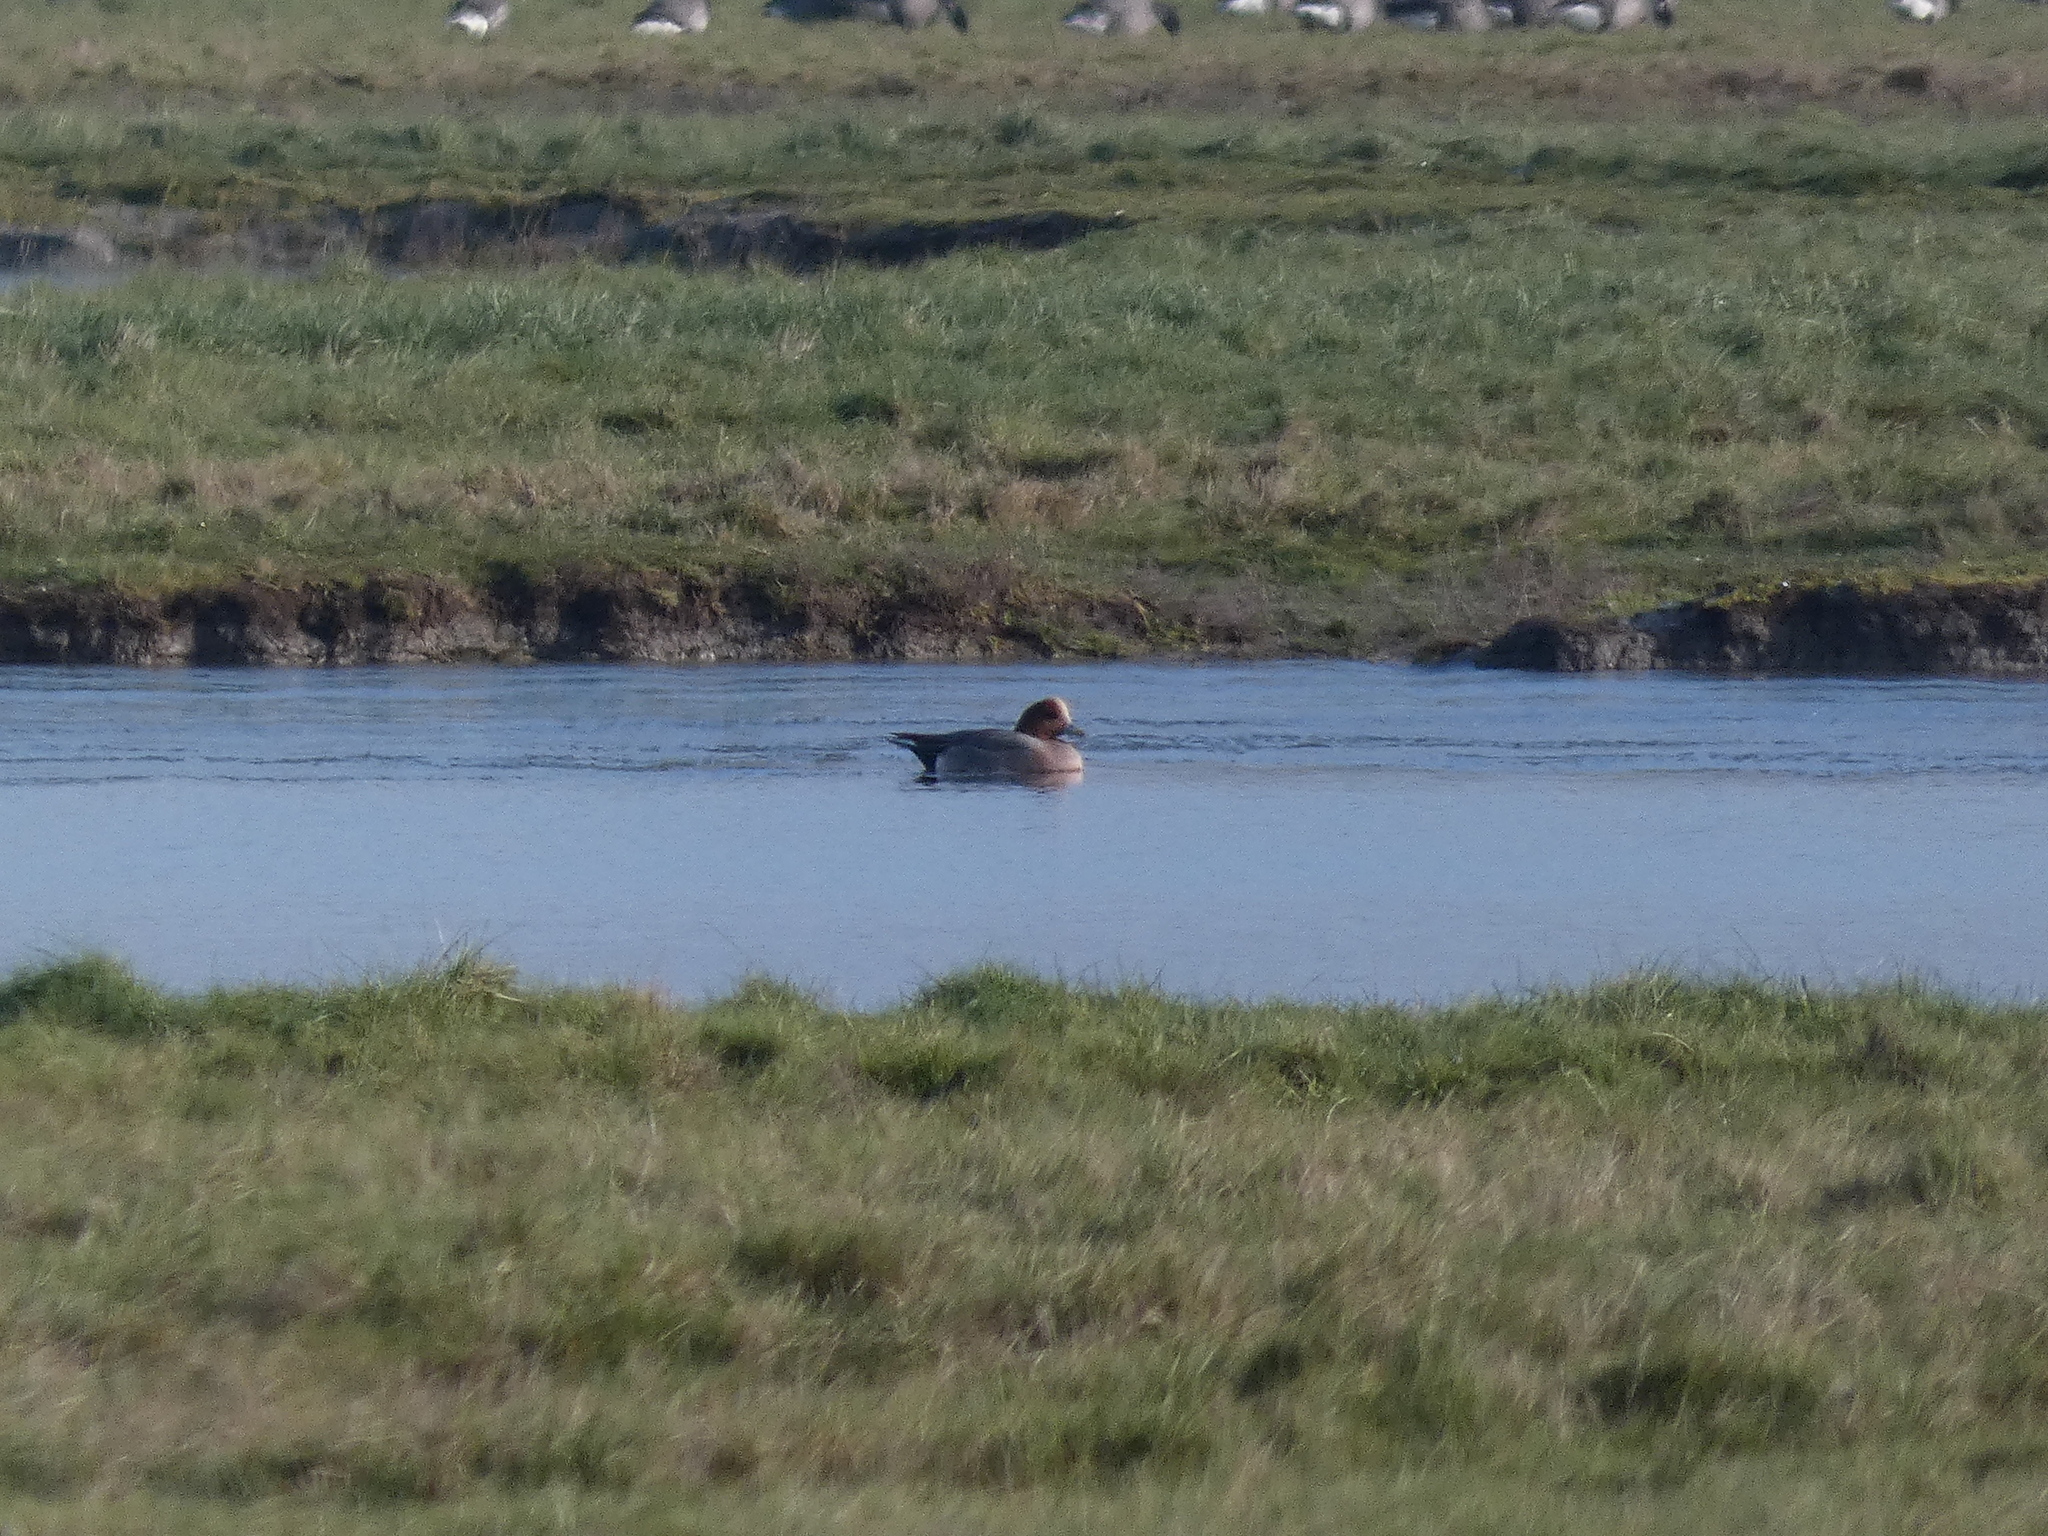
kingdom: Animalia
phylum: Chordata
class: Aves
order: Anseriformes
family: Anatidae
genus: Mareca
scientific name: Mareca penelope
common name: Eurasian wigeon
